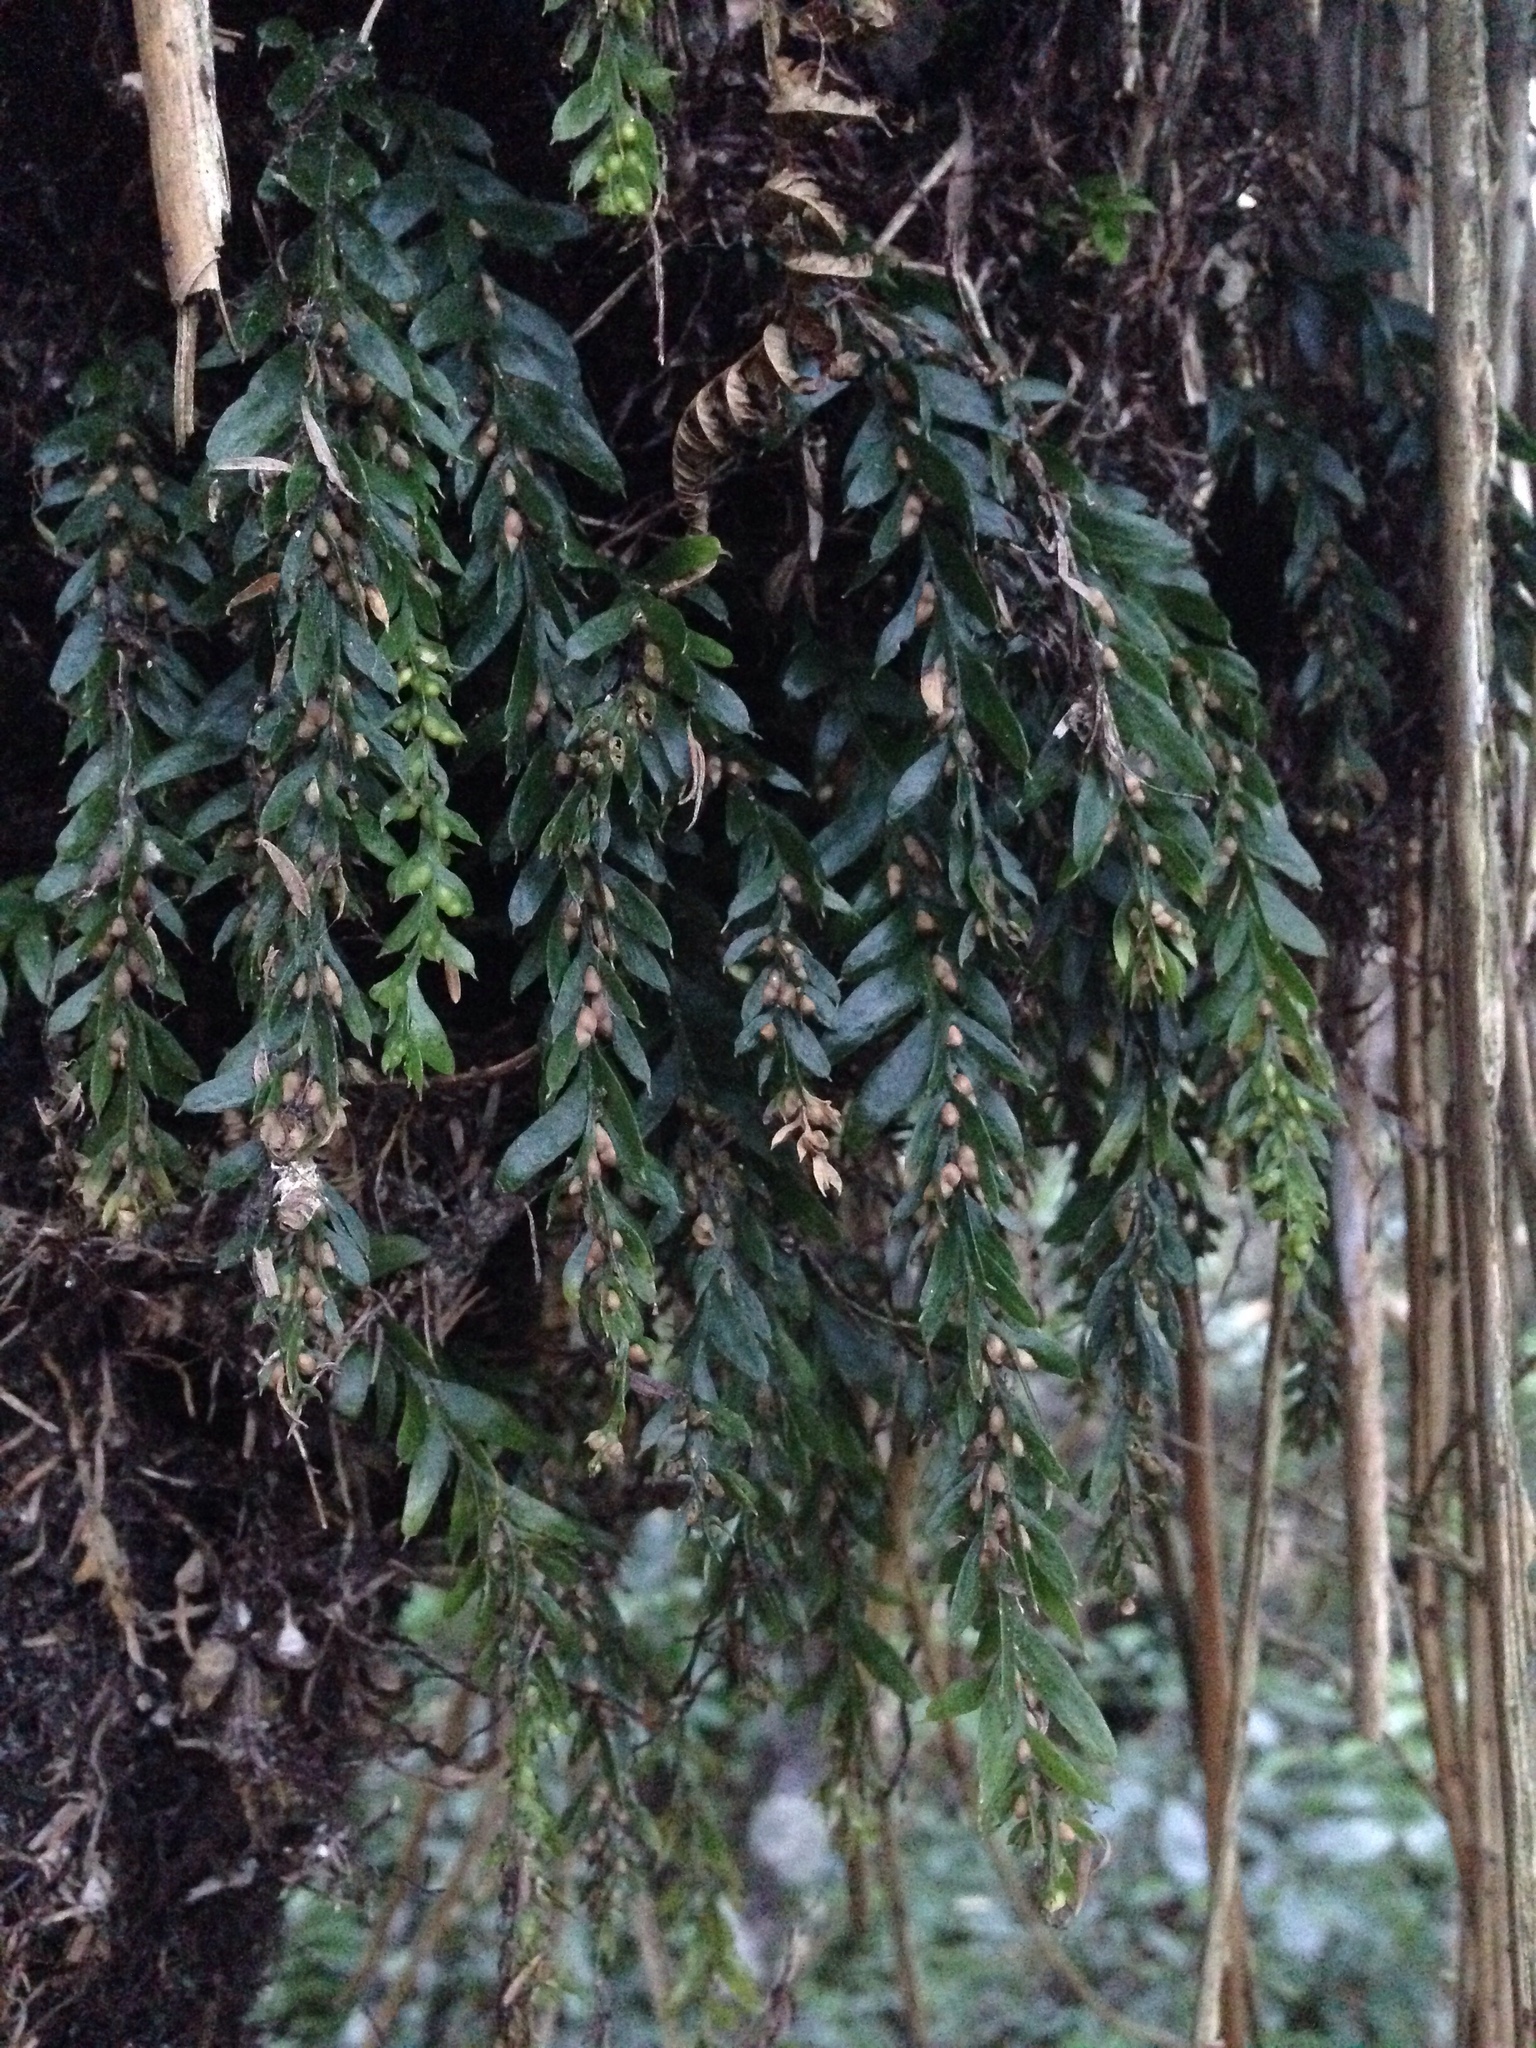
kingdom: Plantae
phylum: Tracheophyta
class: Polypodiopsida
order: Psilotales
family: Psilotaceae
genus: Tmesipteris
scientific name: Tmesipteris horomaka
